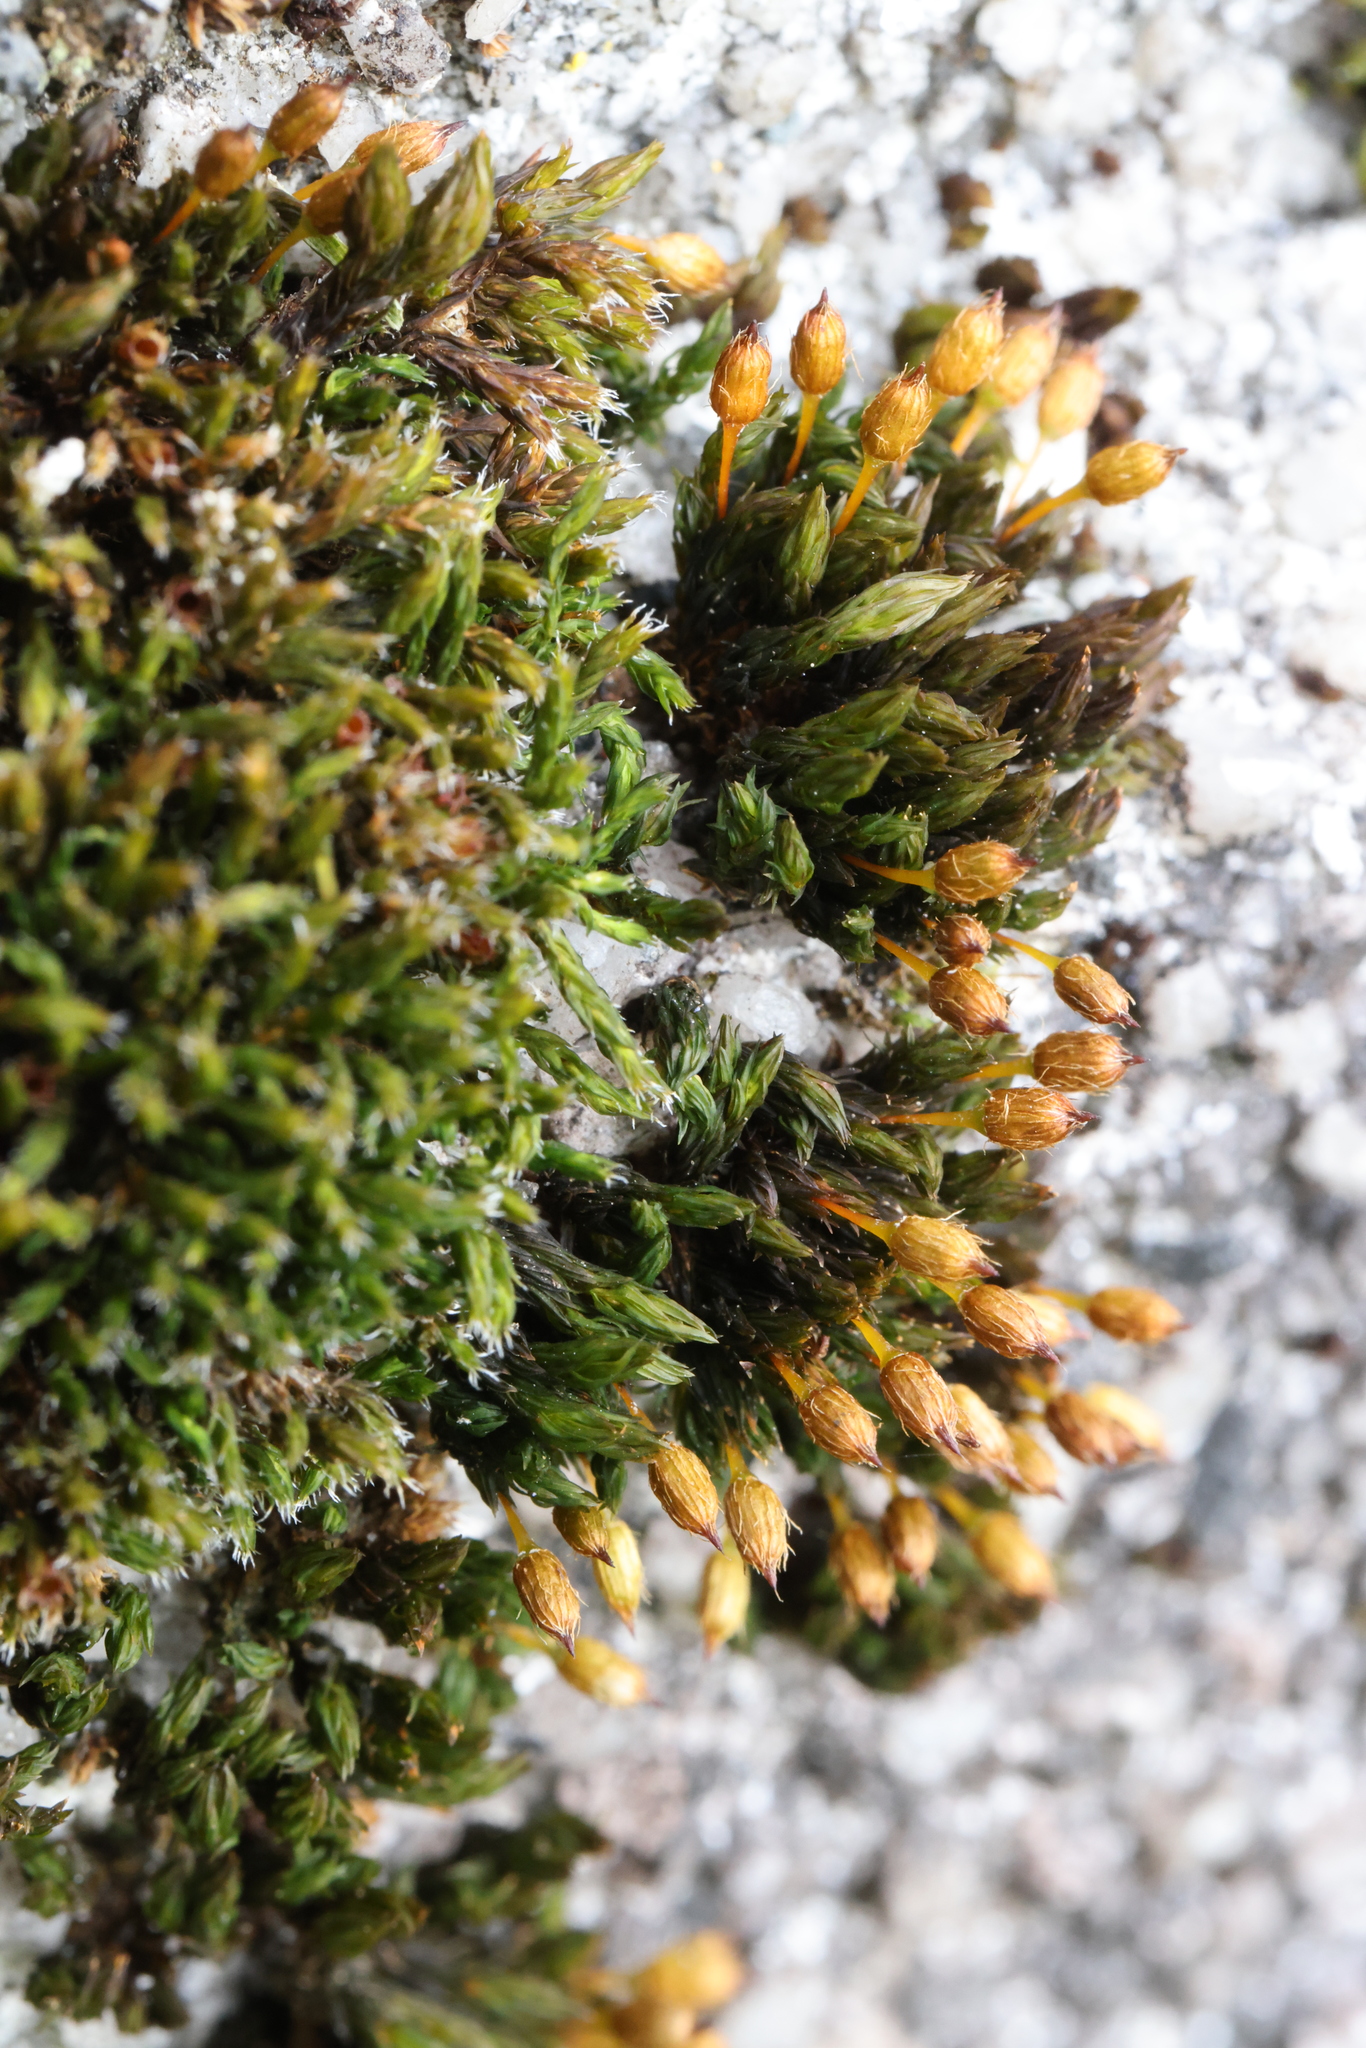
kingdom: Plantae
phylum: Bryophyta
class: Bryopsida
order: Orthotrichales
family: Orthotrichaceae
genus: Orthotrichum
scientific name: Orthotrichum anomalum
